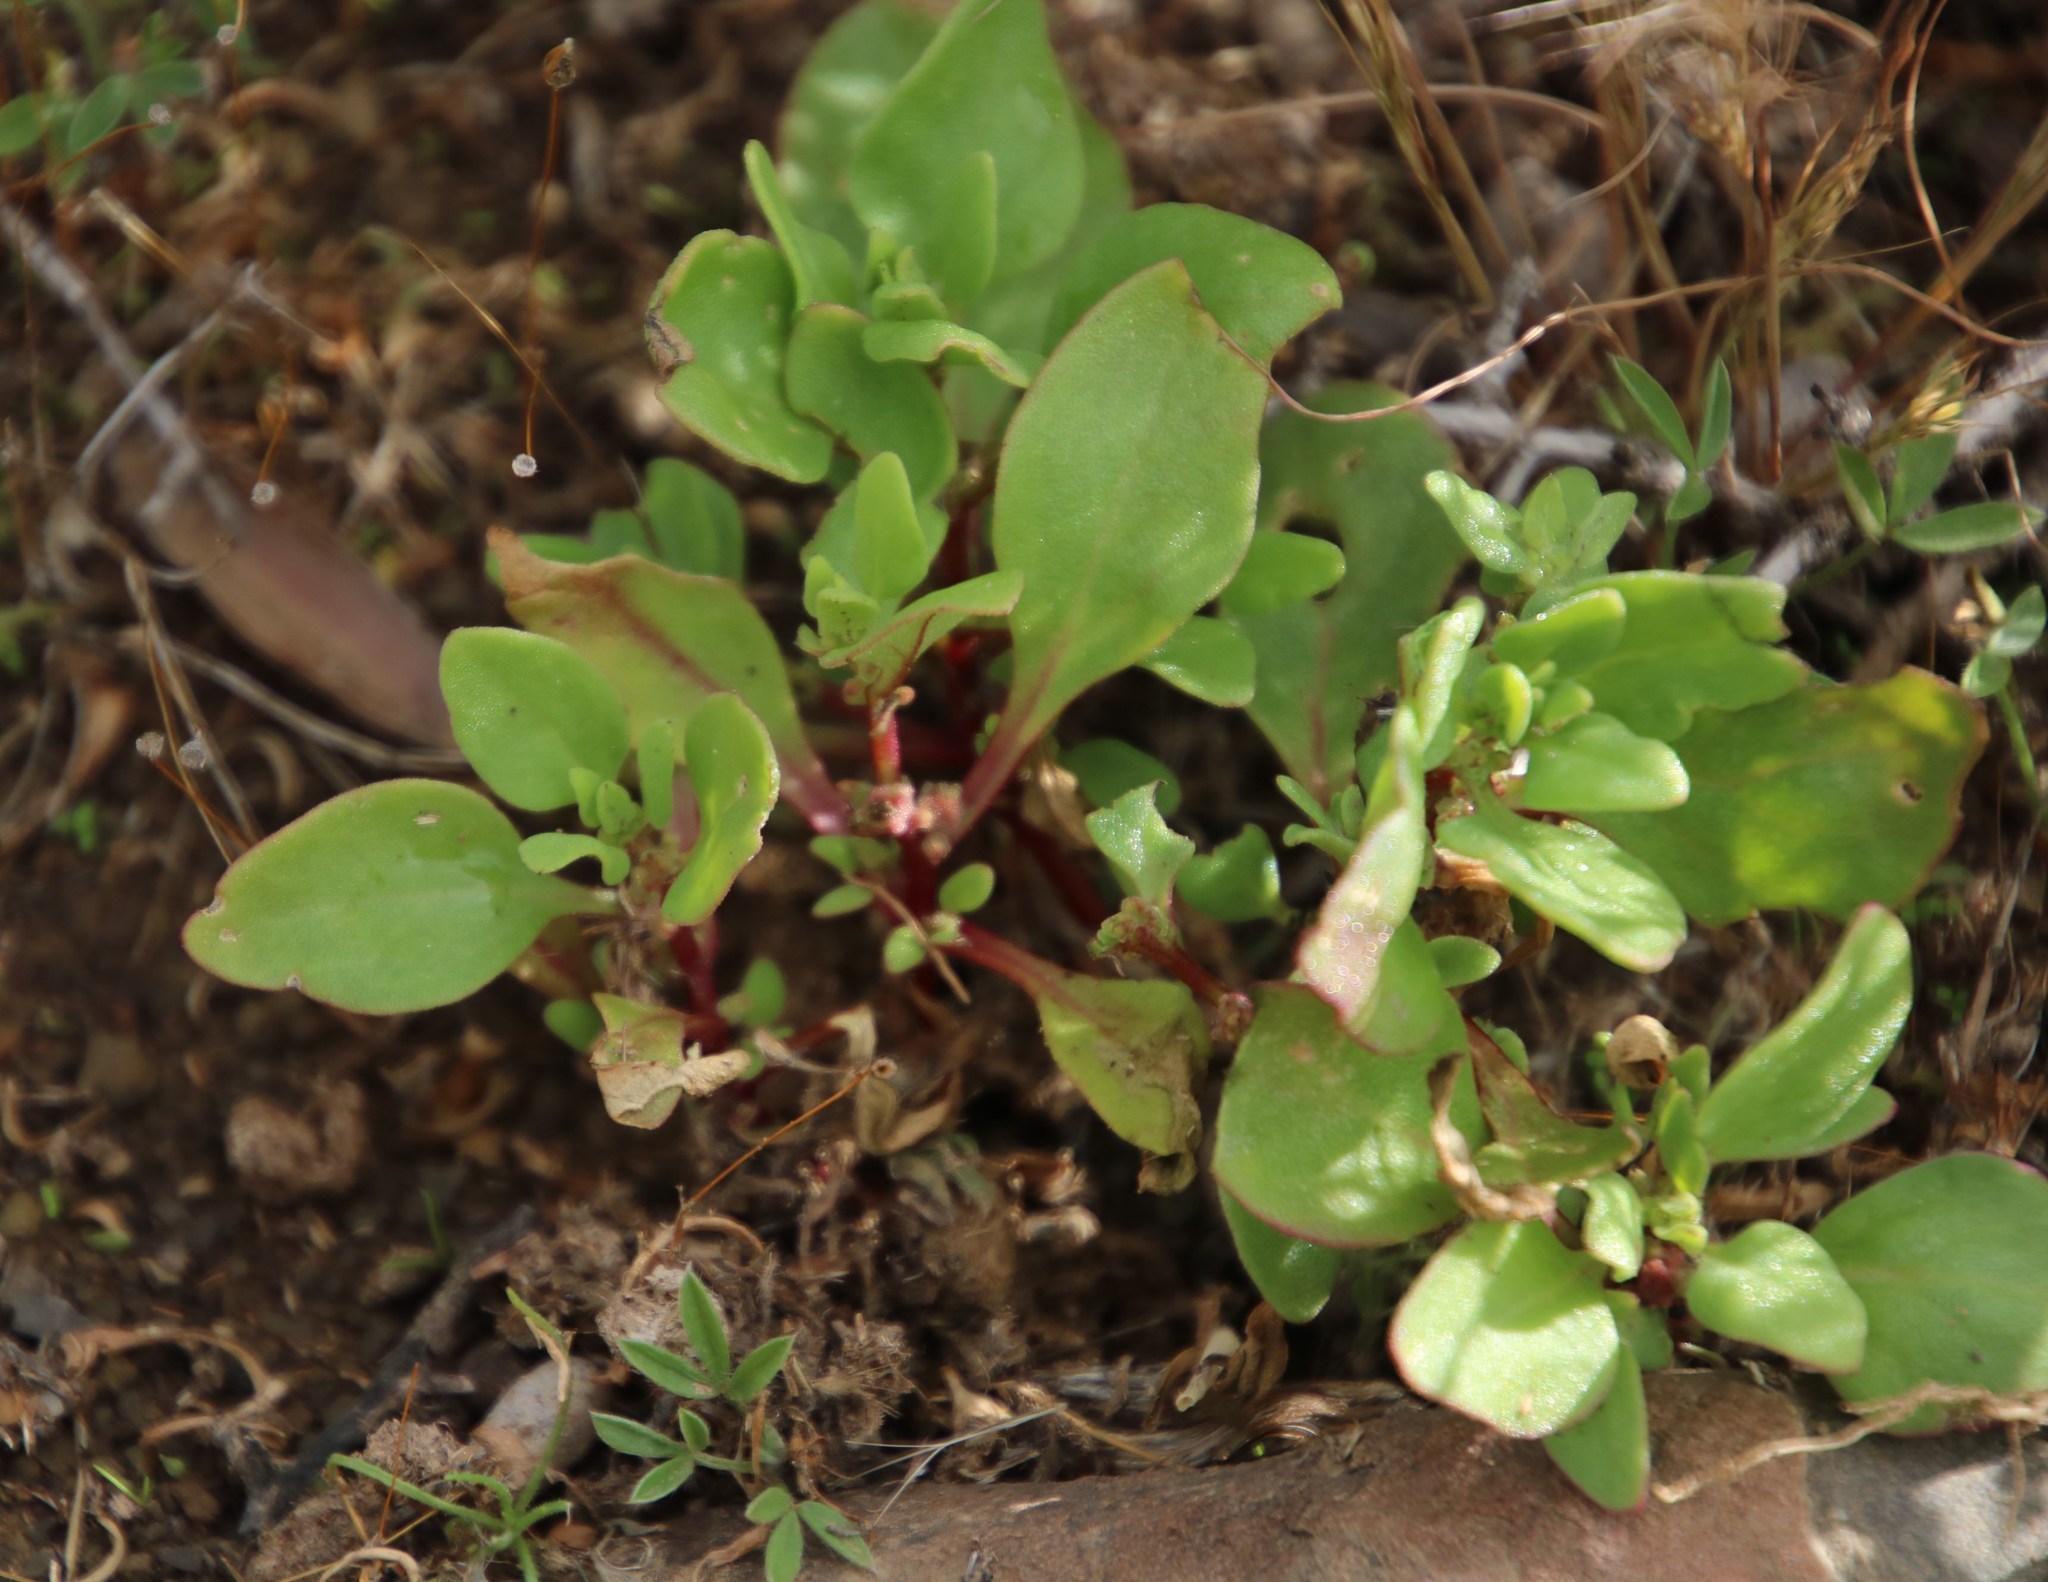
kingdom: Plantae
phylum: Tracheophyta
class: Magnoliopsida
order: Caryophyllales
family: Aizoaceae
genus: Tetragonia
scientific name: Tetragonia echinata
